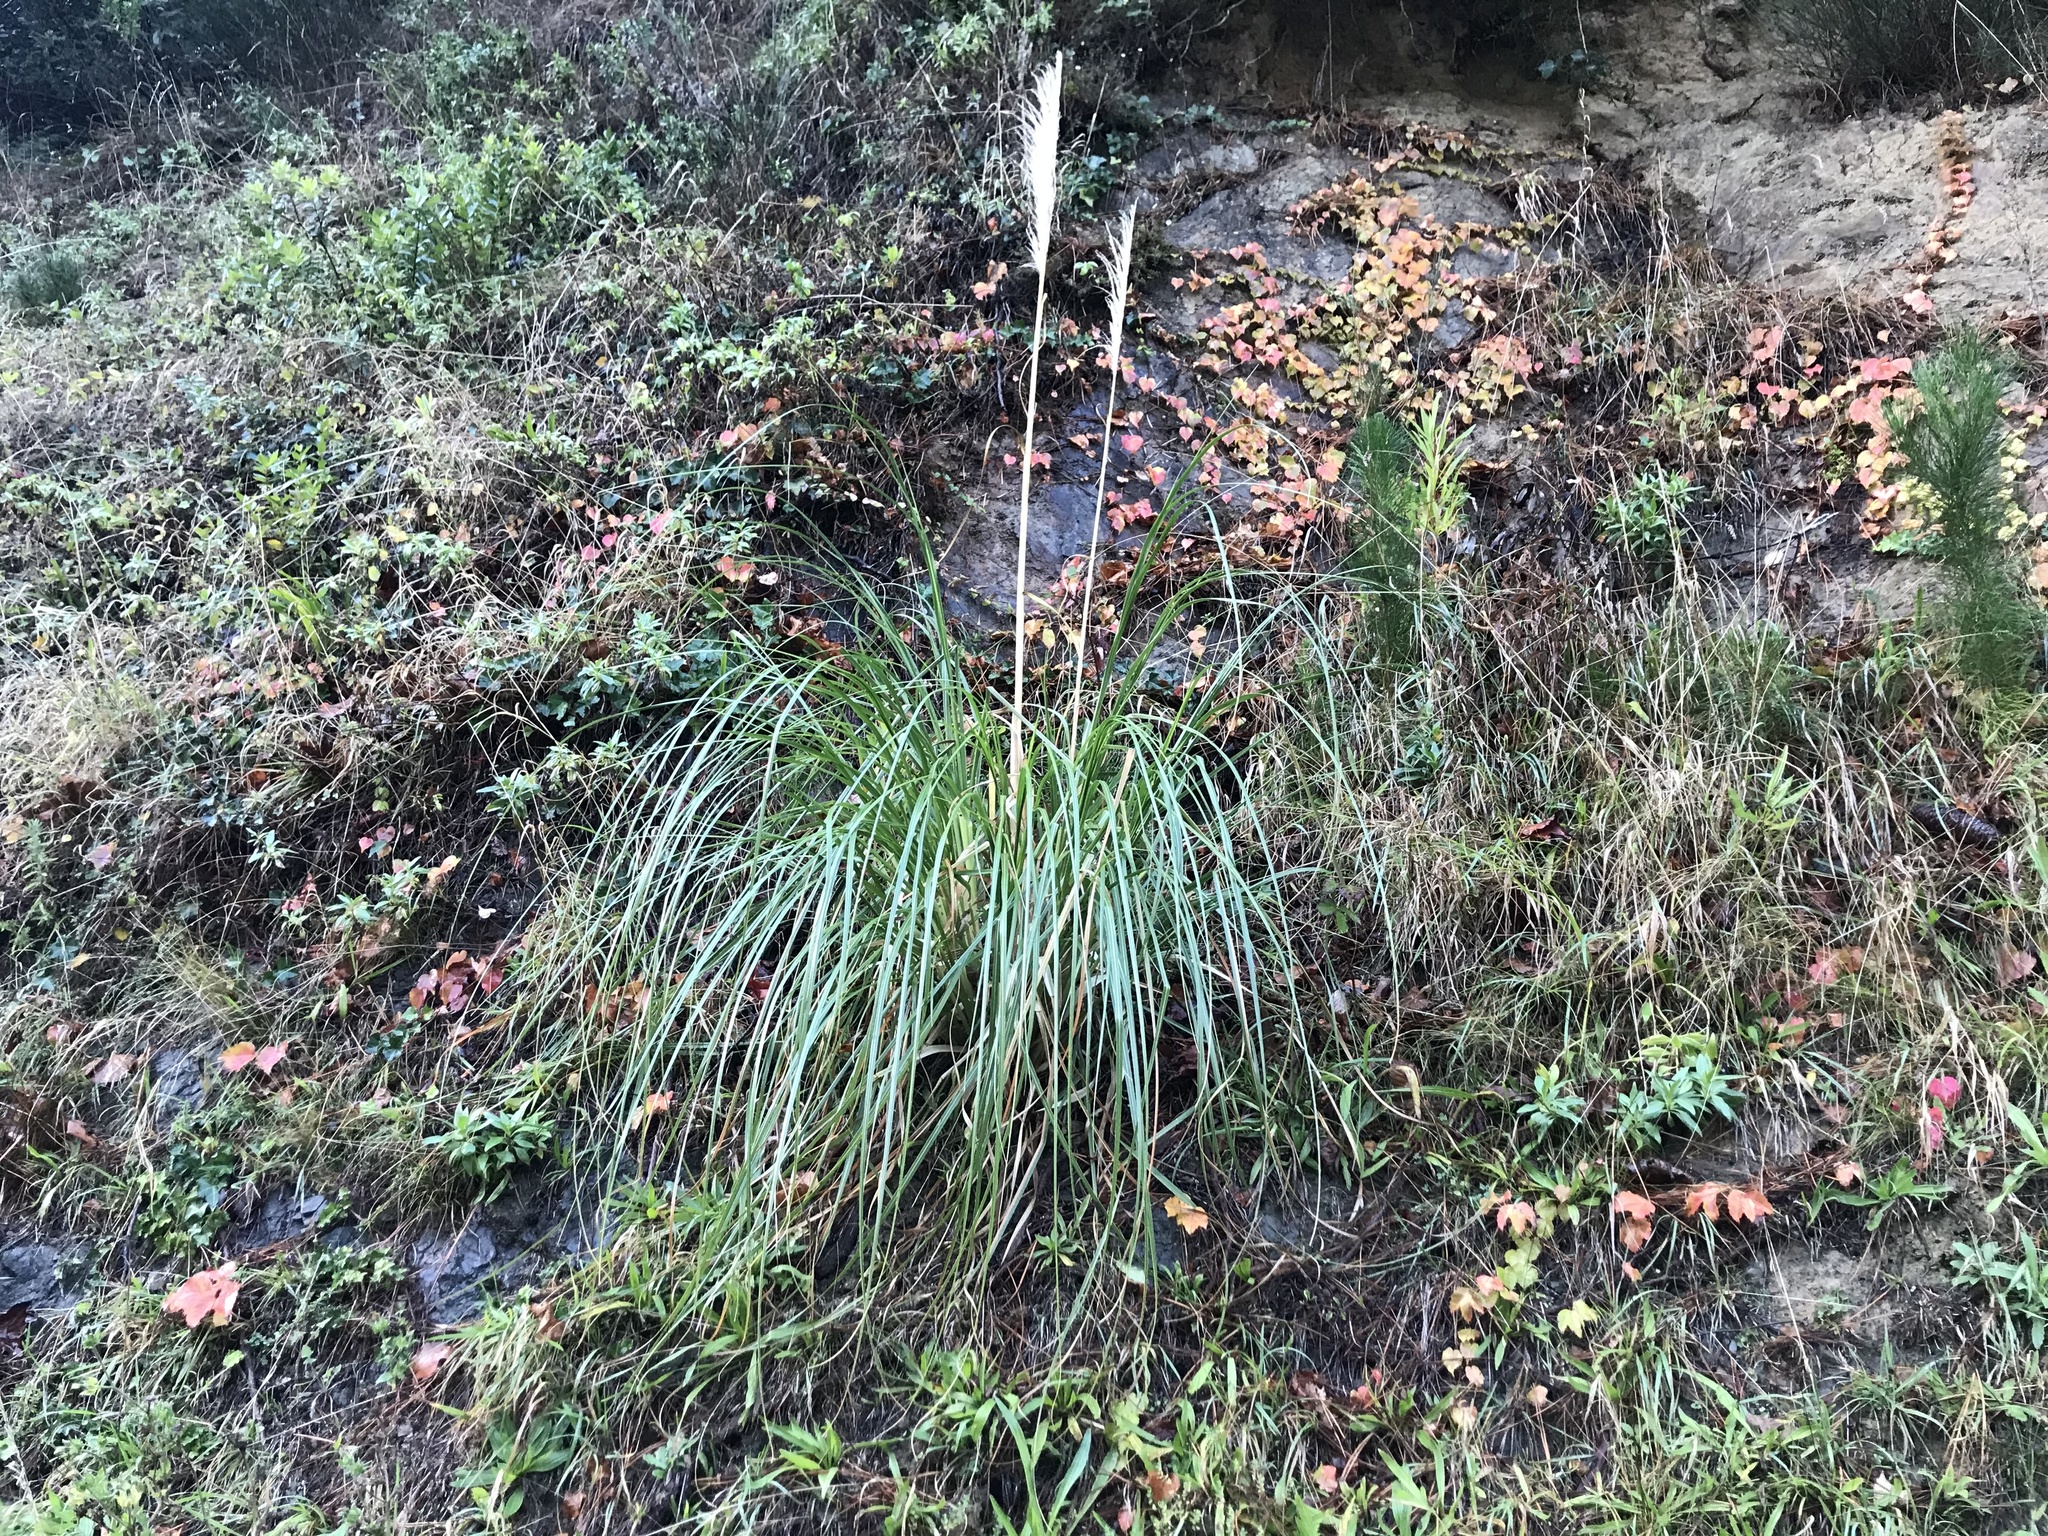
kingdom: Plantae
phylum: Tracheophyta
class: Liliopsida
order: Poales
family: Poaceae
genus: Cortaderia
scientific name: Cortaderia selloana
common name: Uruguayan pampas grass
